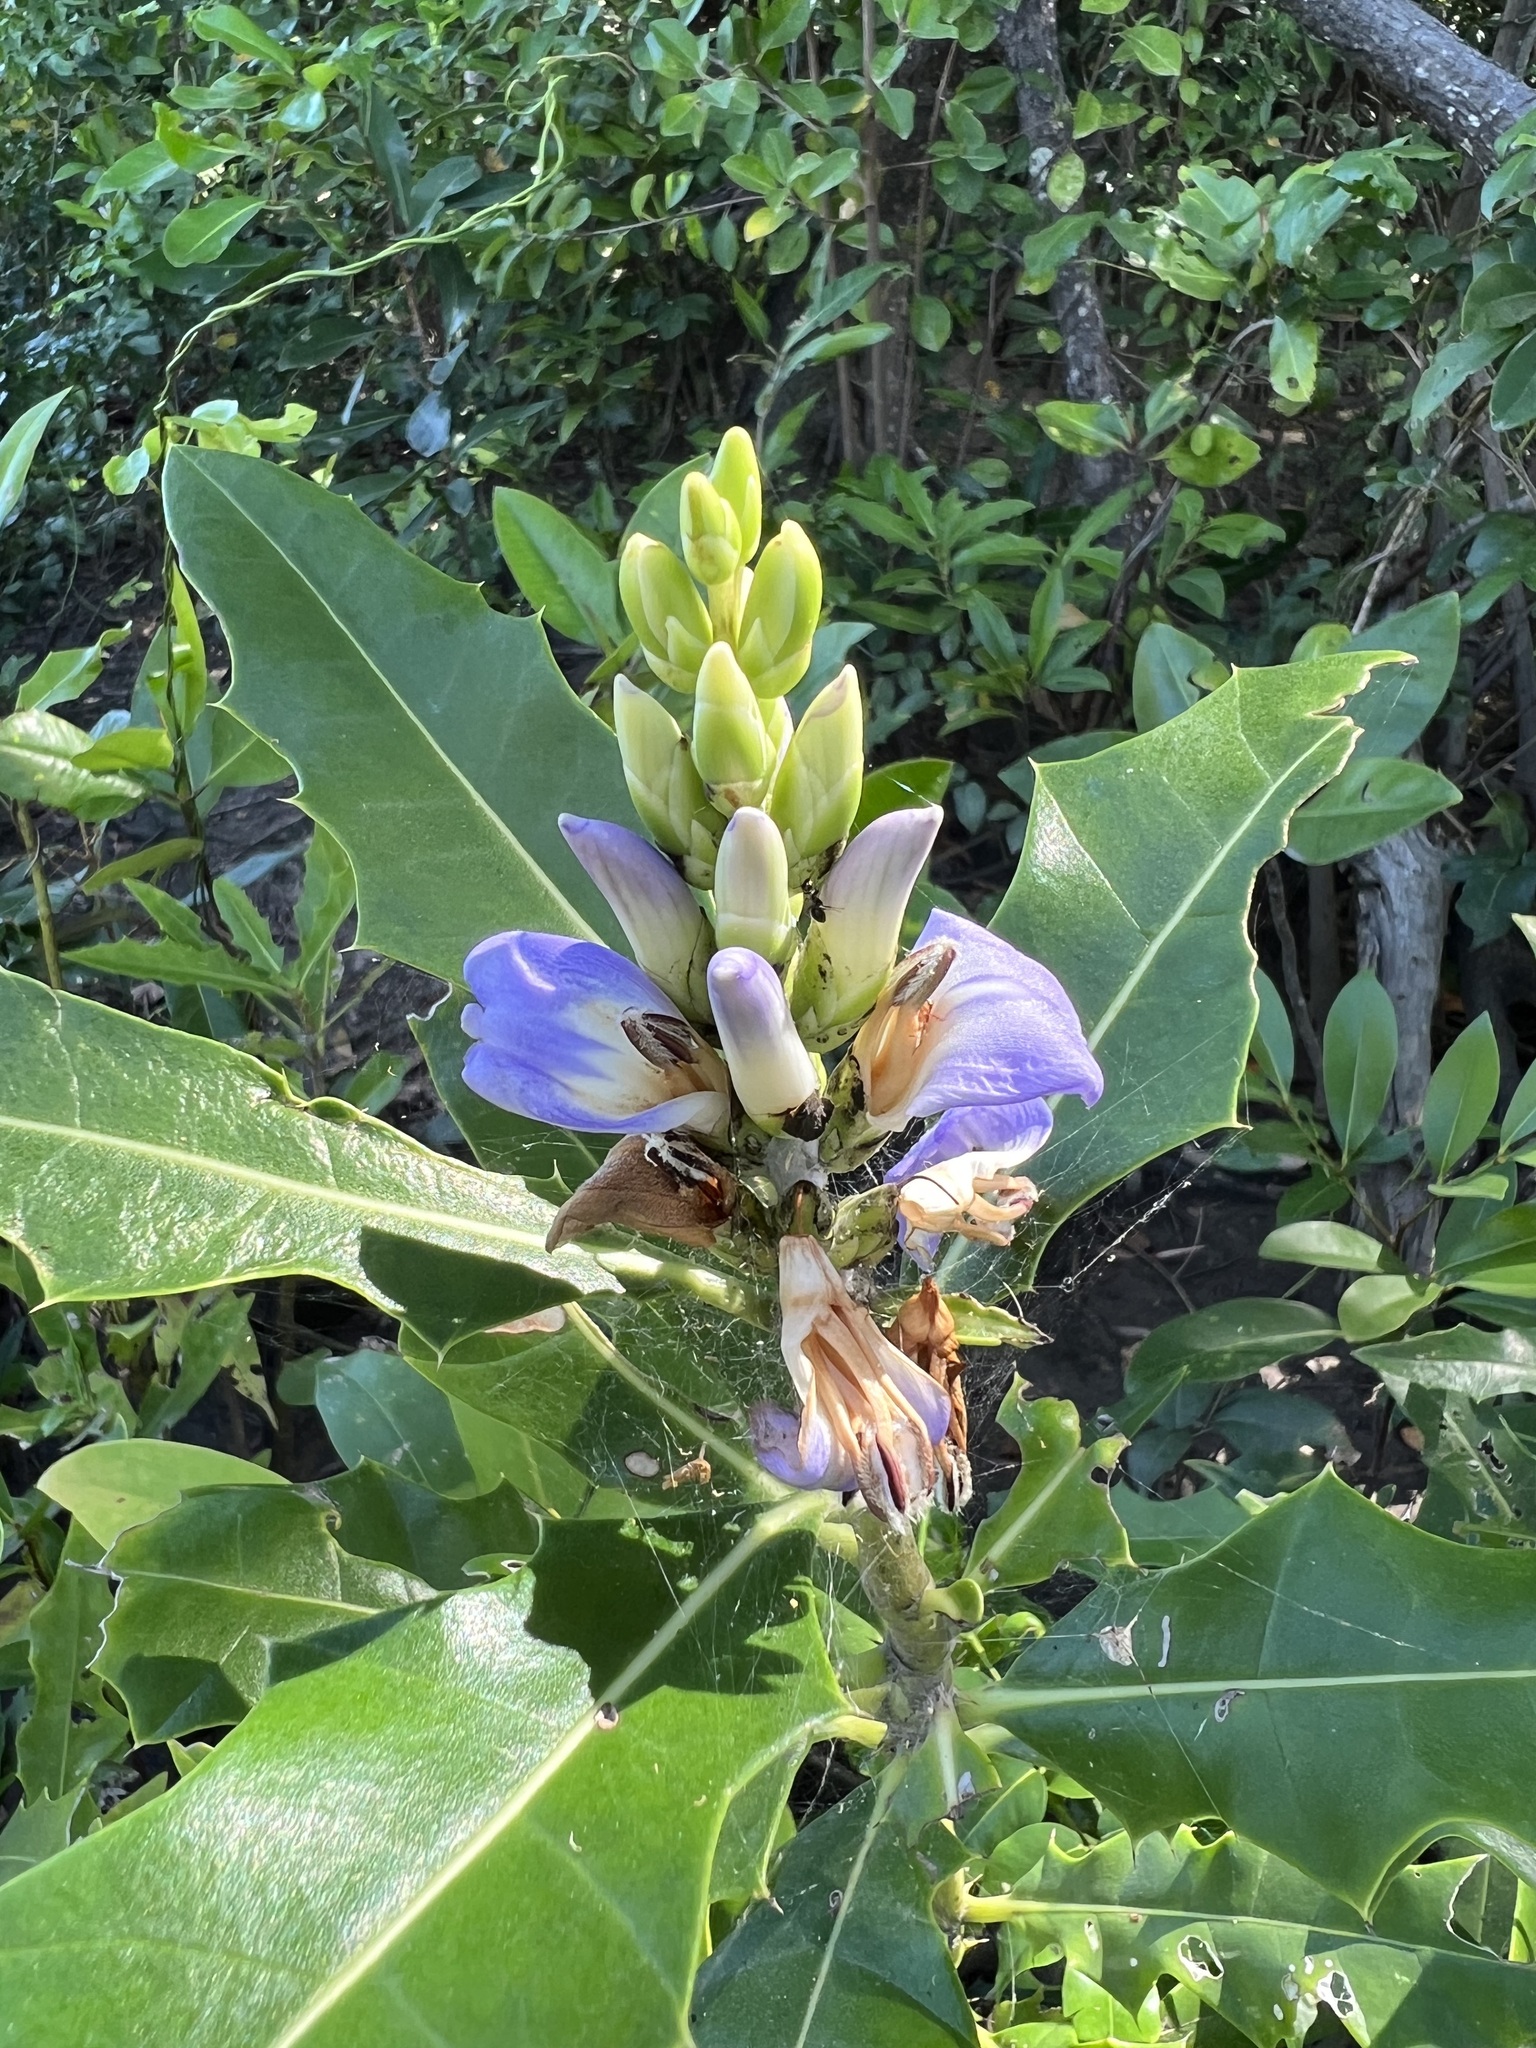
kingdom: Plantae
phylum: Tracheophyta
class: Magnoliopsida
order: Lamiales
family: Acanthaceae
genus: Acanthus
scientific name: Acanthus ilicifolius
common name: Holy mangrove
